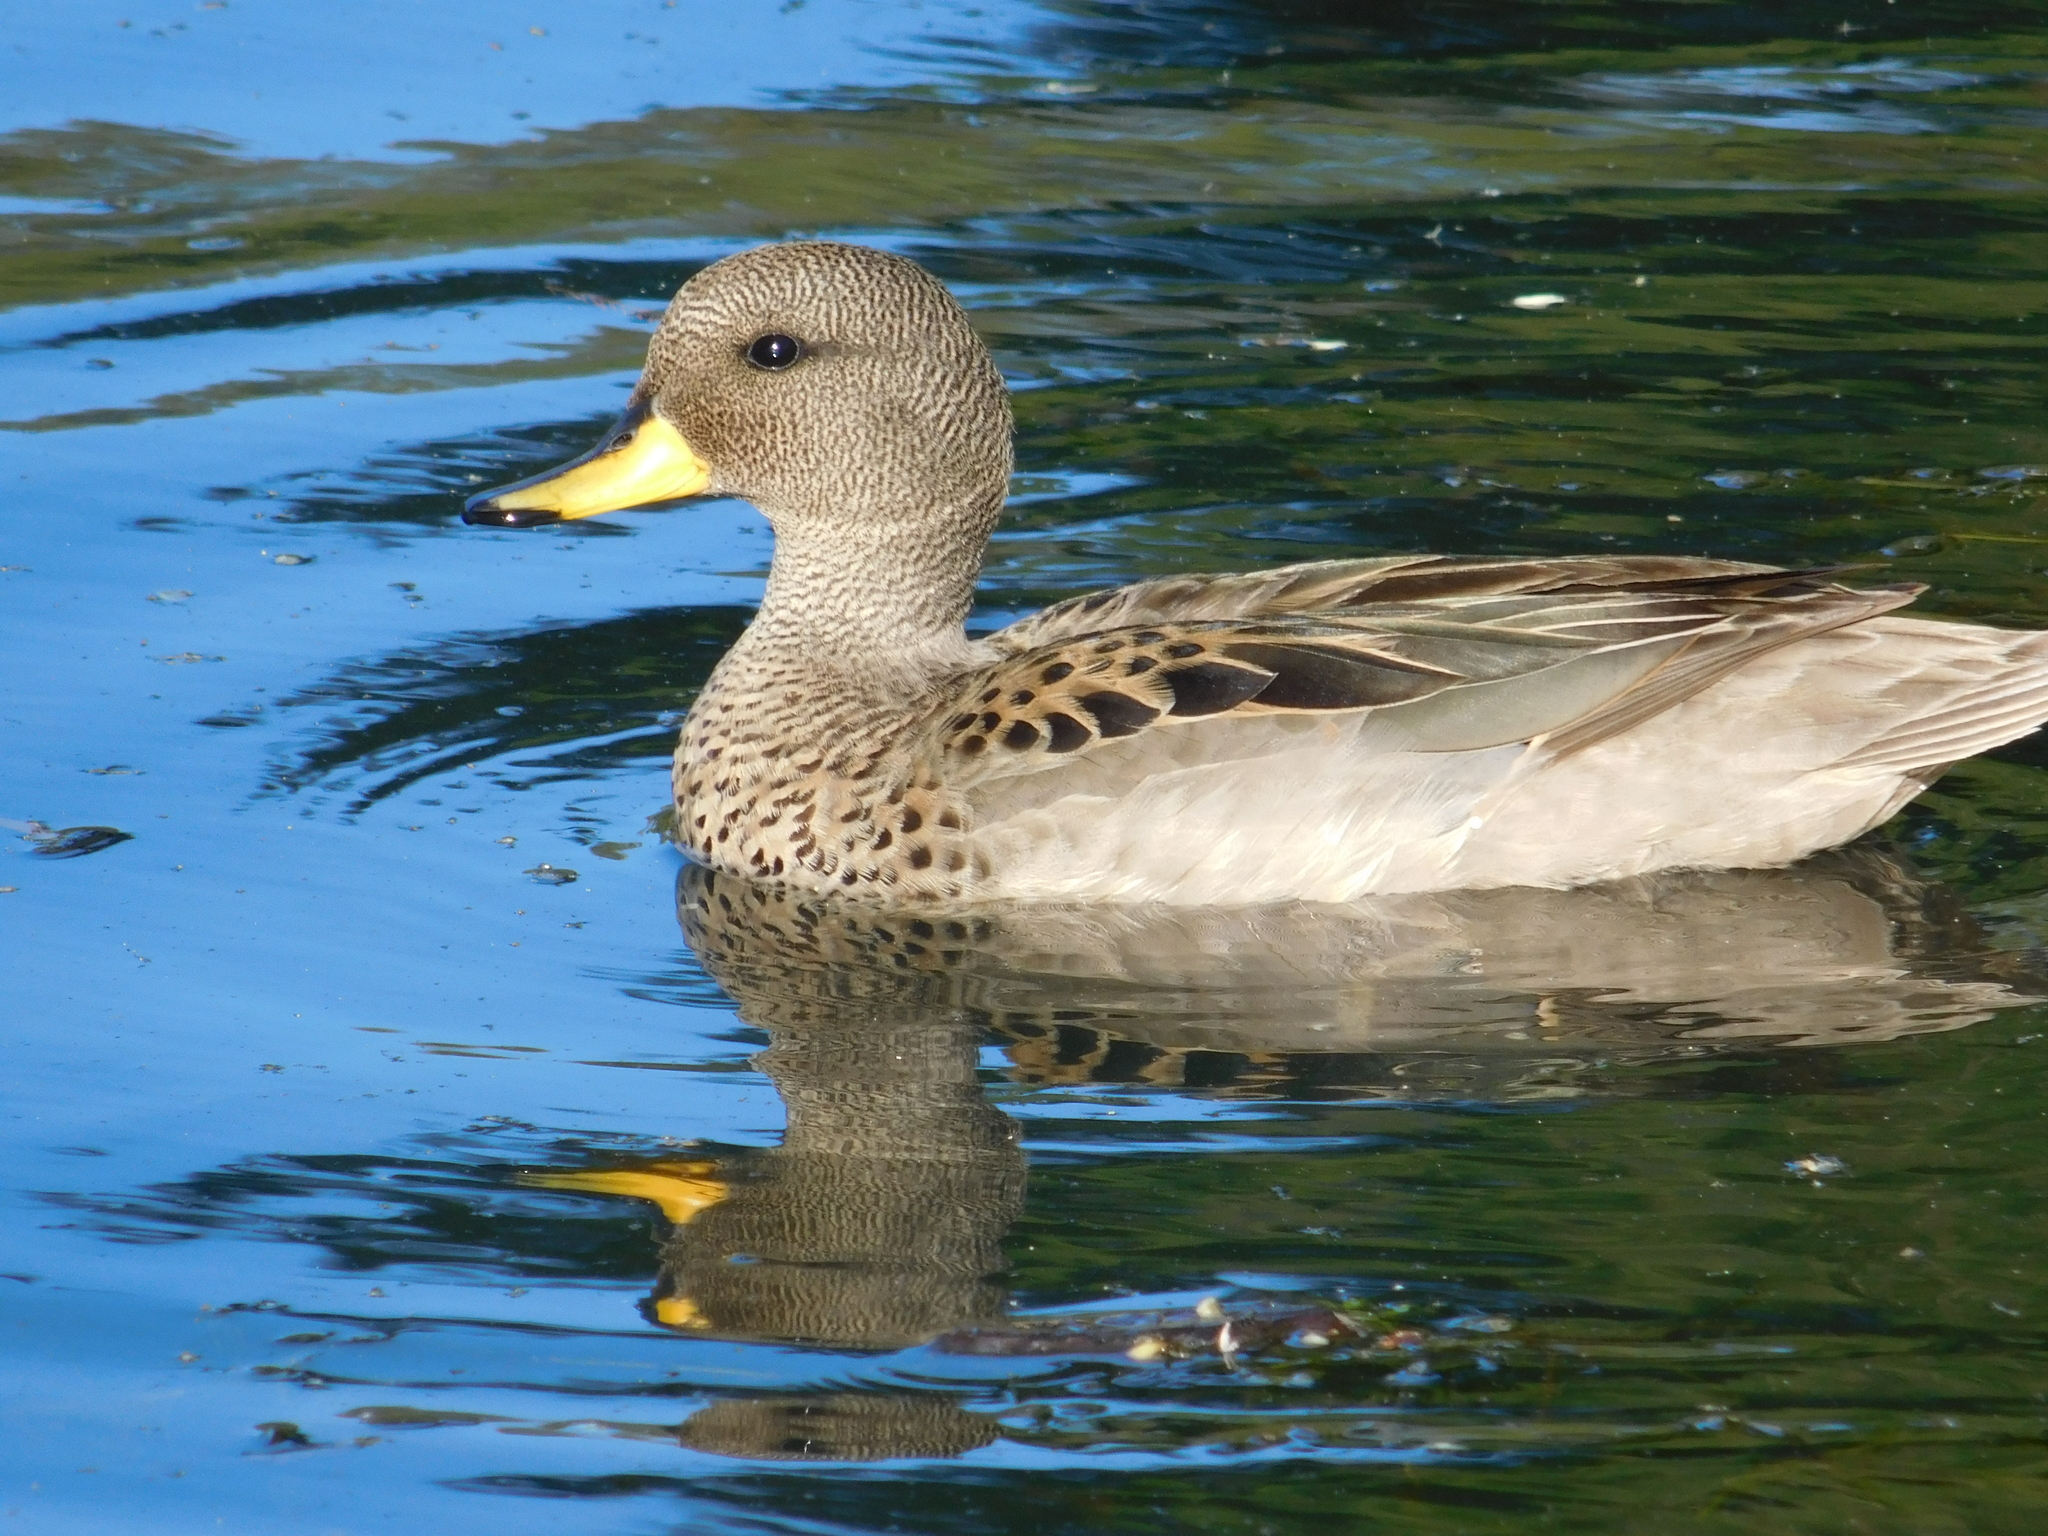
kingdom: Animalia
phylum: Chordata
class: Aves
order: Anseriformes
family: Anatidae
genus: Anas
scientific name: Anas flavirostris
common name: Yellow-billed teal
